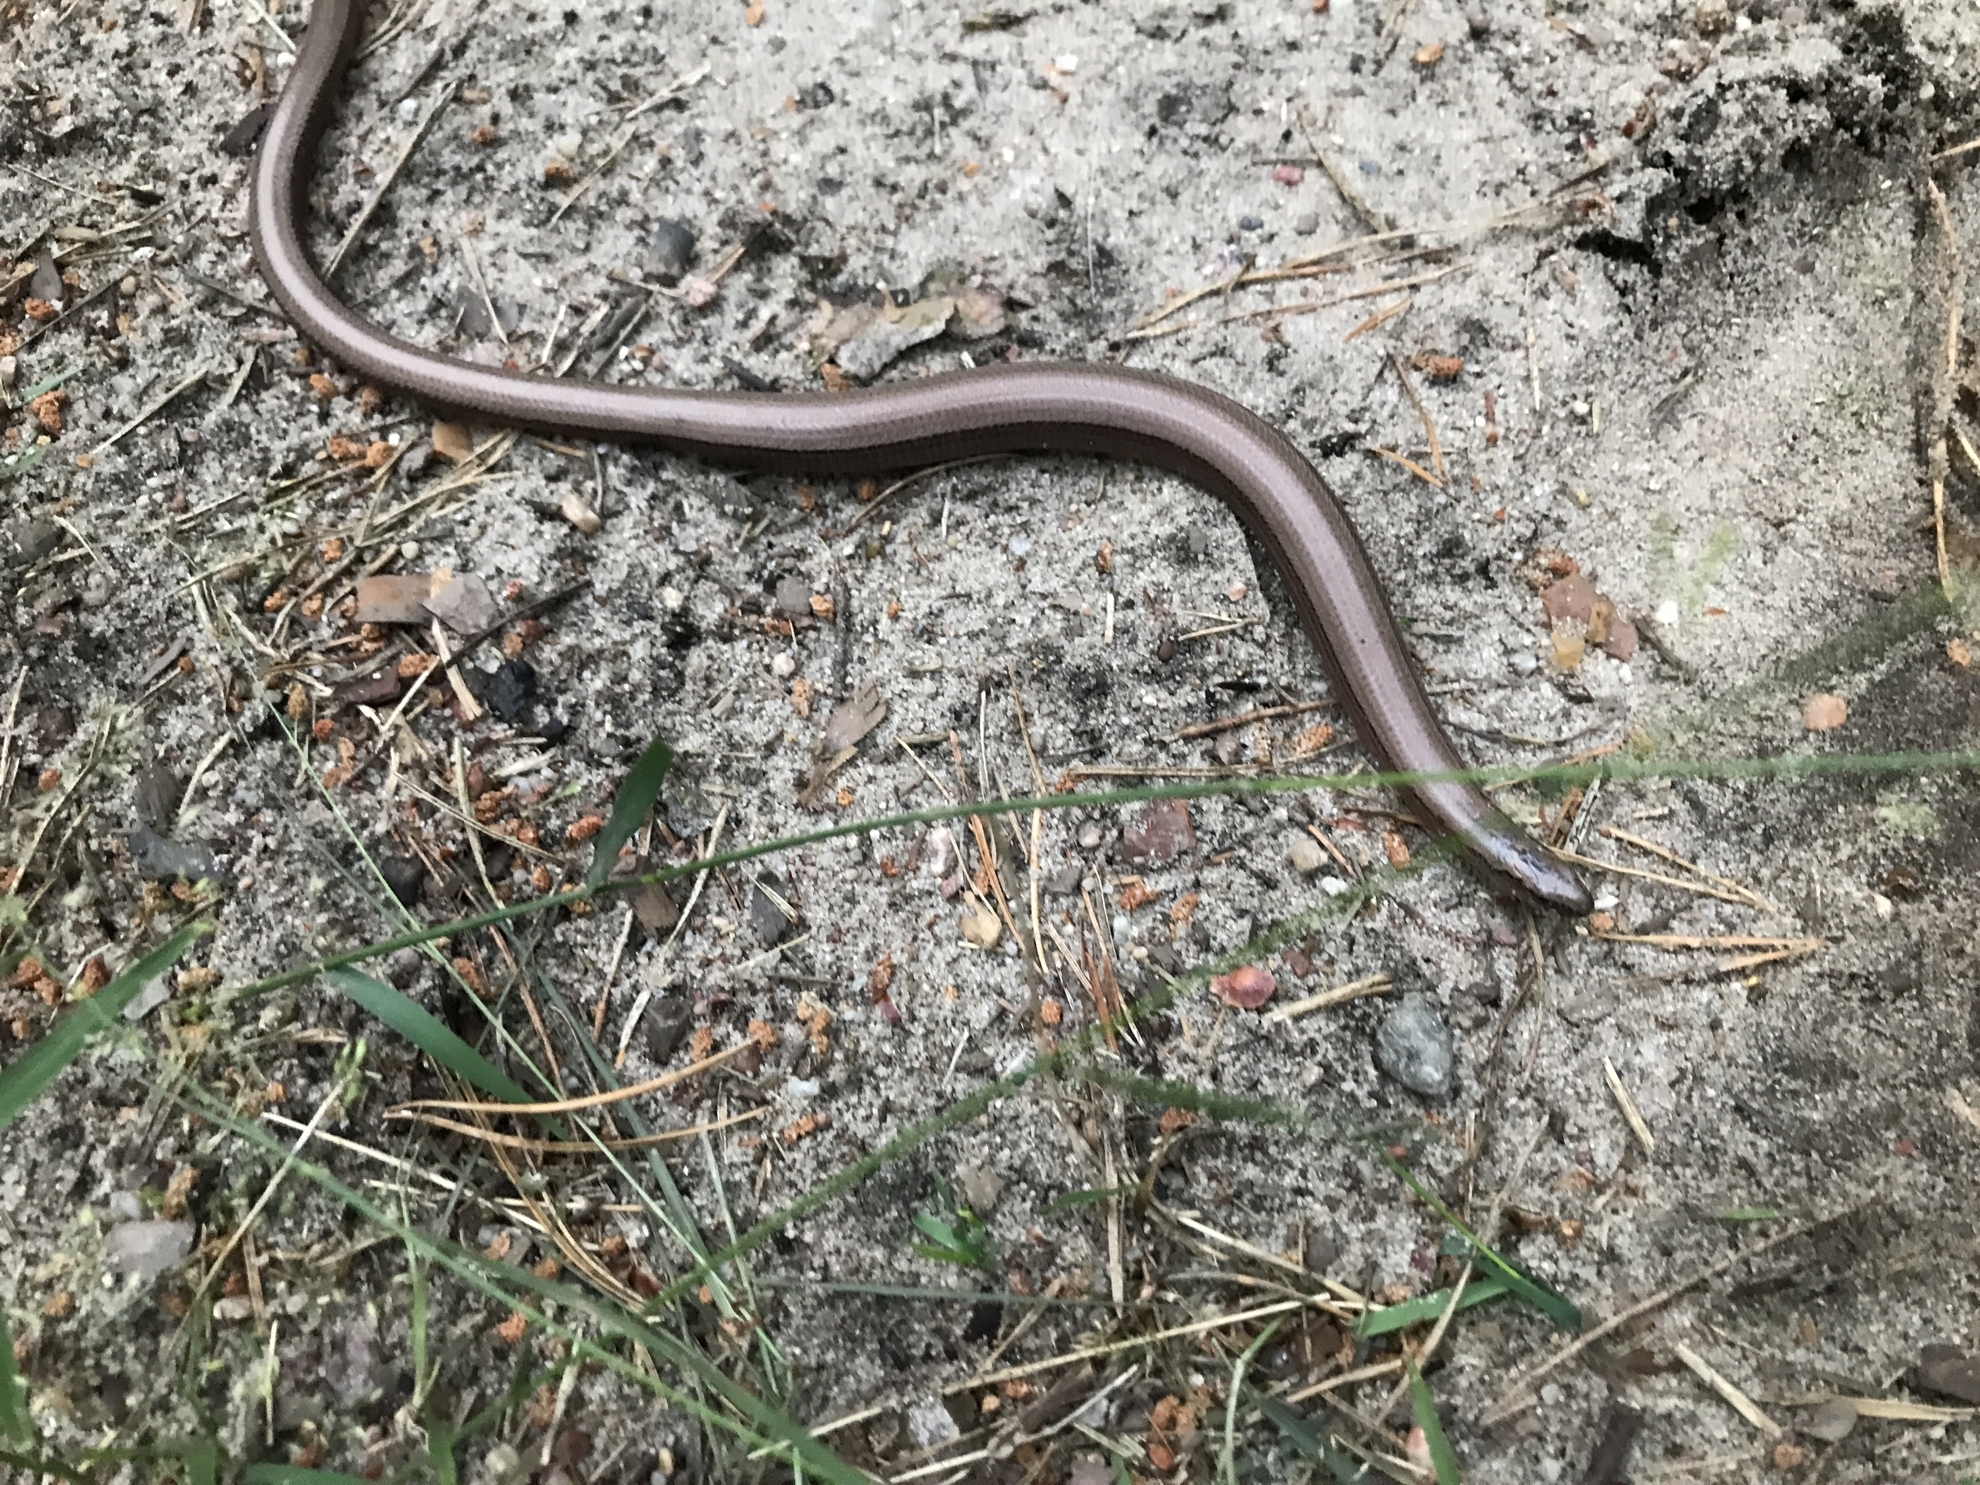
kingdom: Animalia
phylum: Chordata
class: Squamata
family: Anguidae
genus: Anguis
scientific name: Anguis fragilis
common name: Slow worm
